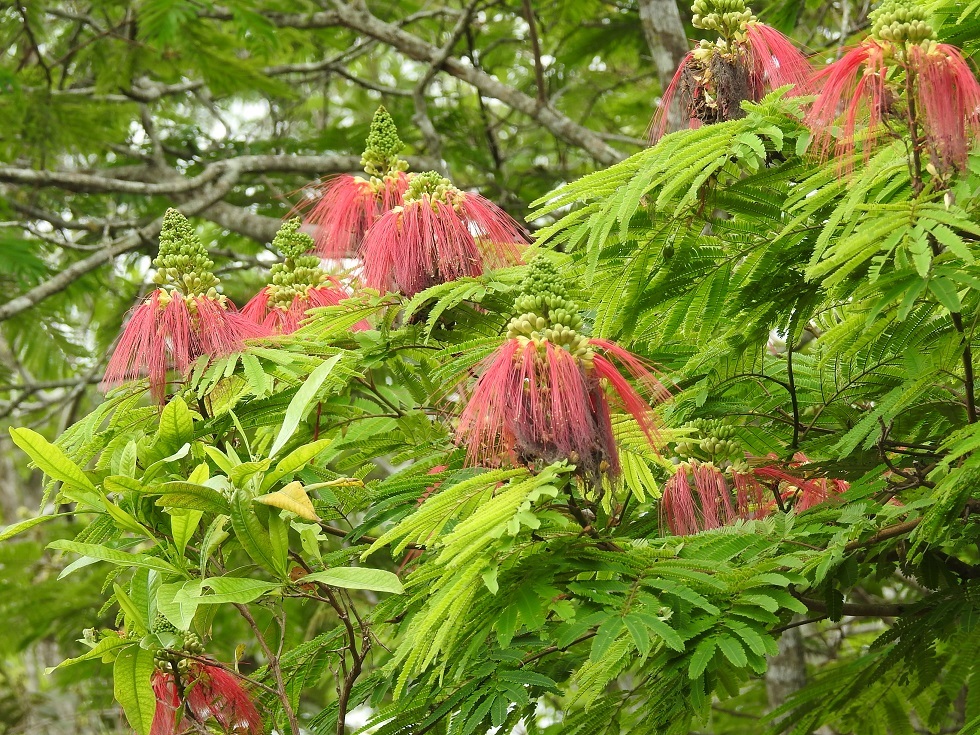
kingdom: Plantae
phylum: Tracheophyta
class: Magnoliopsida
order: Fabales
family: Fabaceae
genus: Calliandra
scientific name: Calliandra houstoniana
